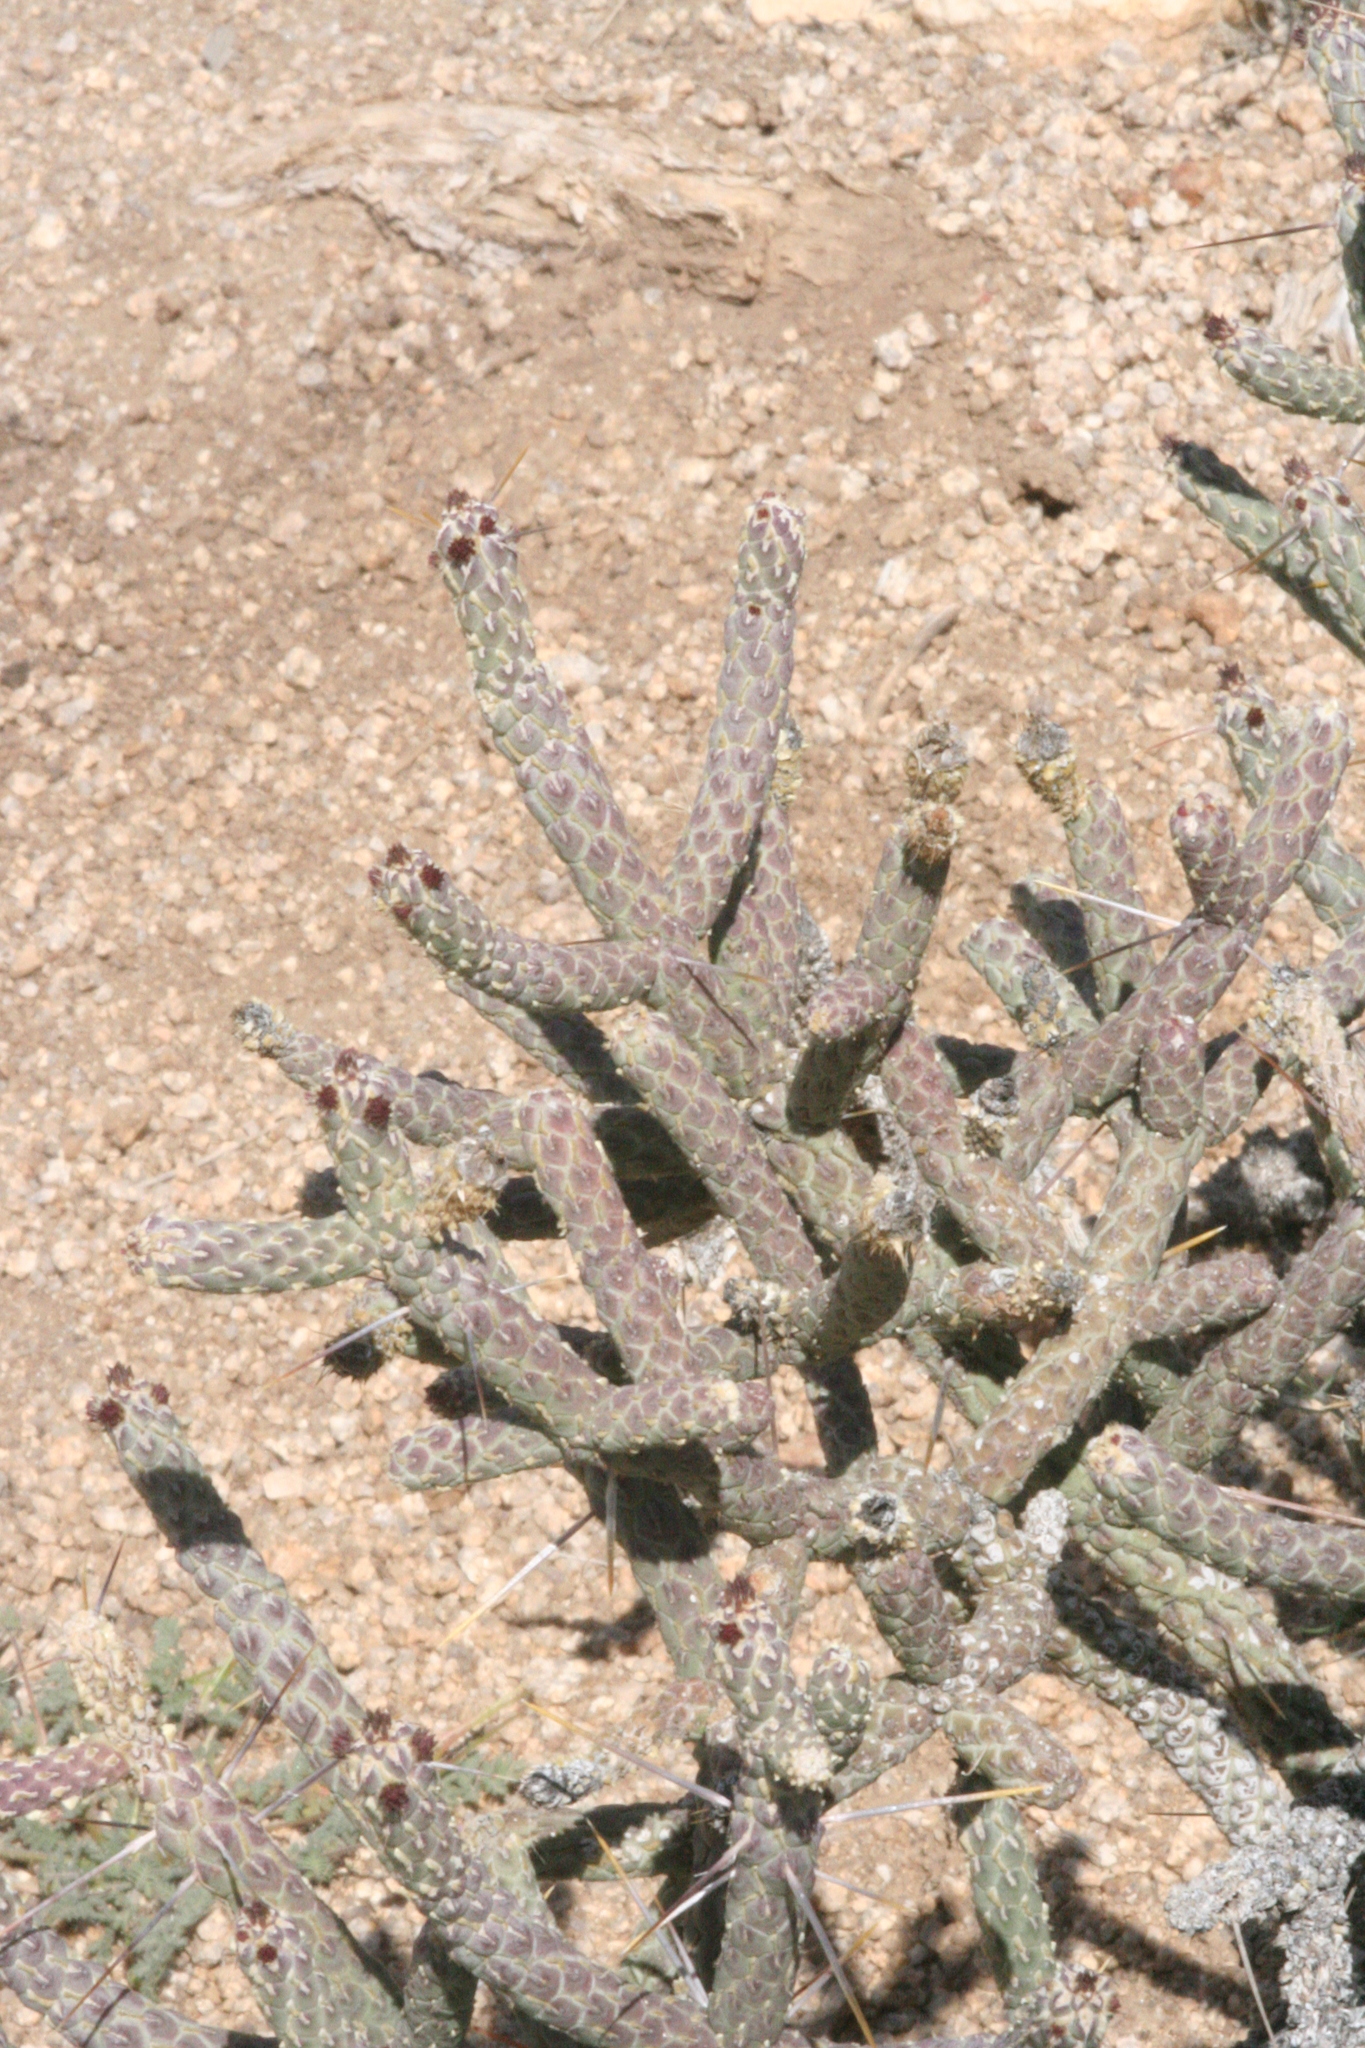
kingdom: Plantae
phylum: Tracheophyta
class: Magnoliopsida
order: Caryophyllales
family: Cactaceae
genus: Cylindropuntia
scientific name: Cylindropuntia ramosissima
